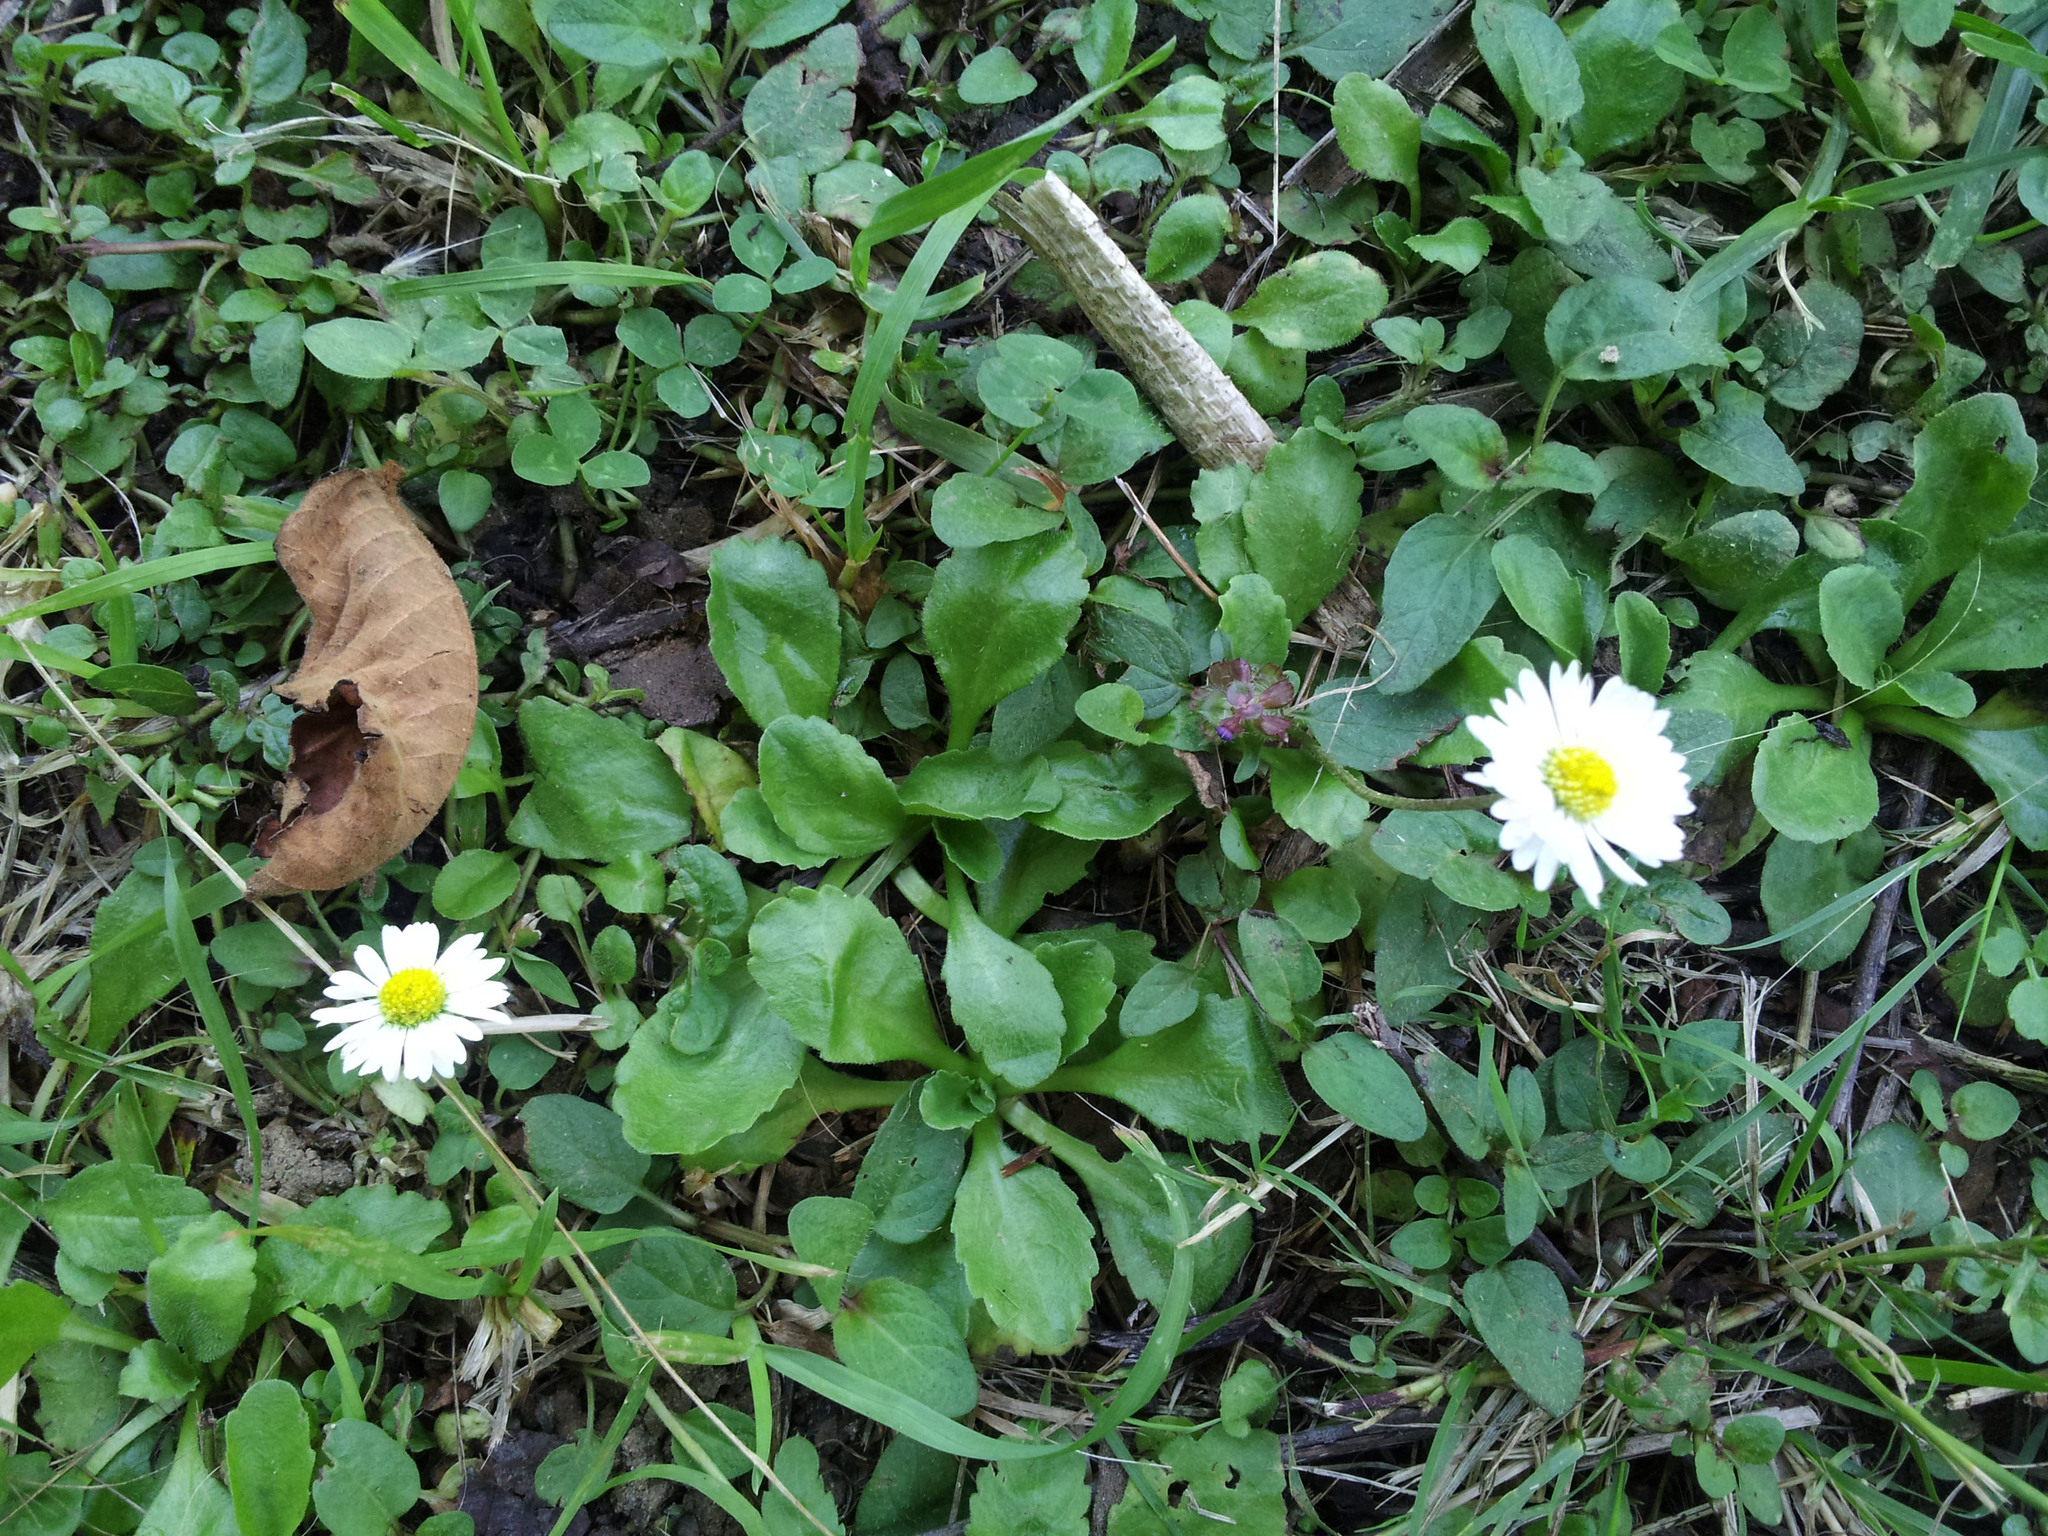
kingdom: Plantae
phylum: Tracheophyta
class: Magnoliopsida
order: Asterales
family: Asteraceae
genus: Bellis
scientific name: Bellis perennis
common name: Lawndaisy
